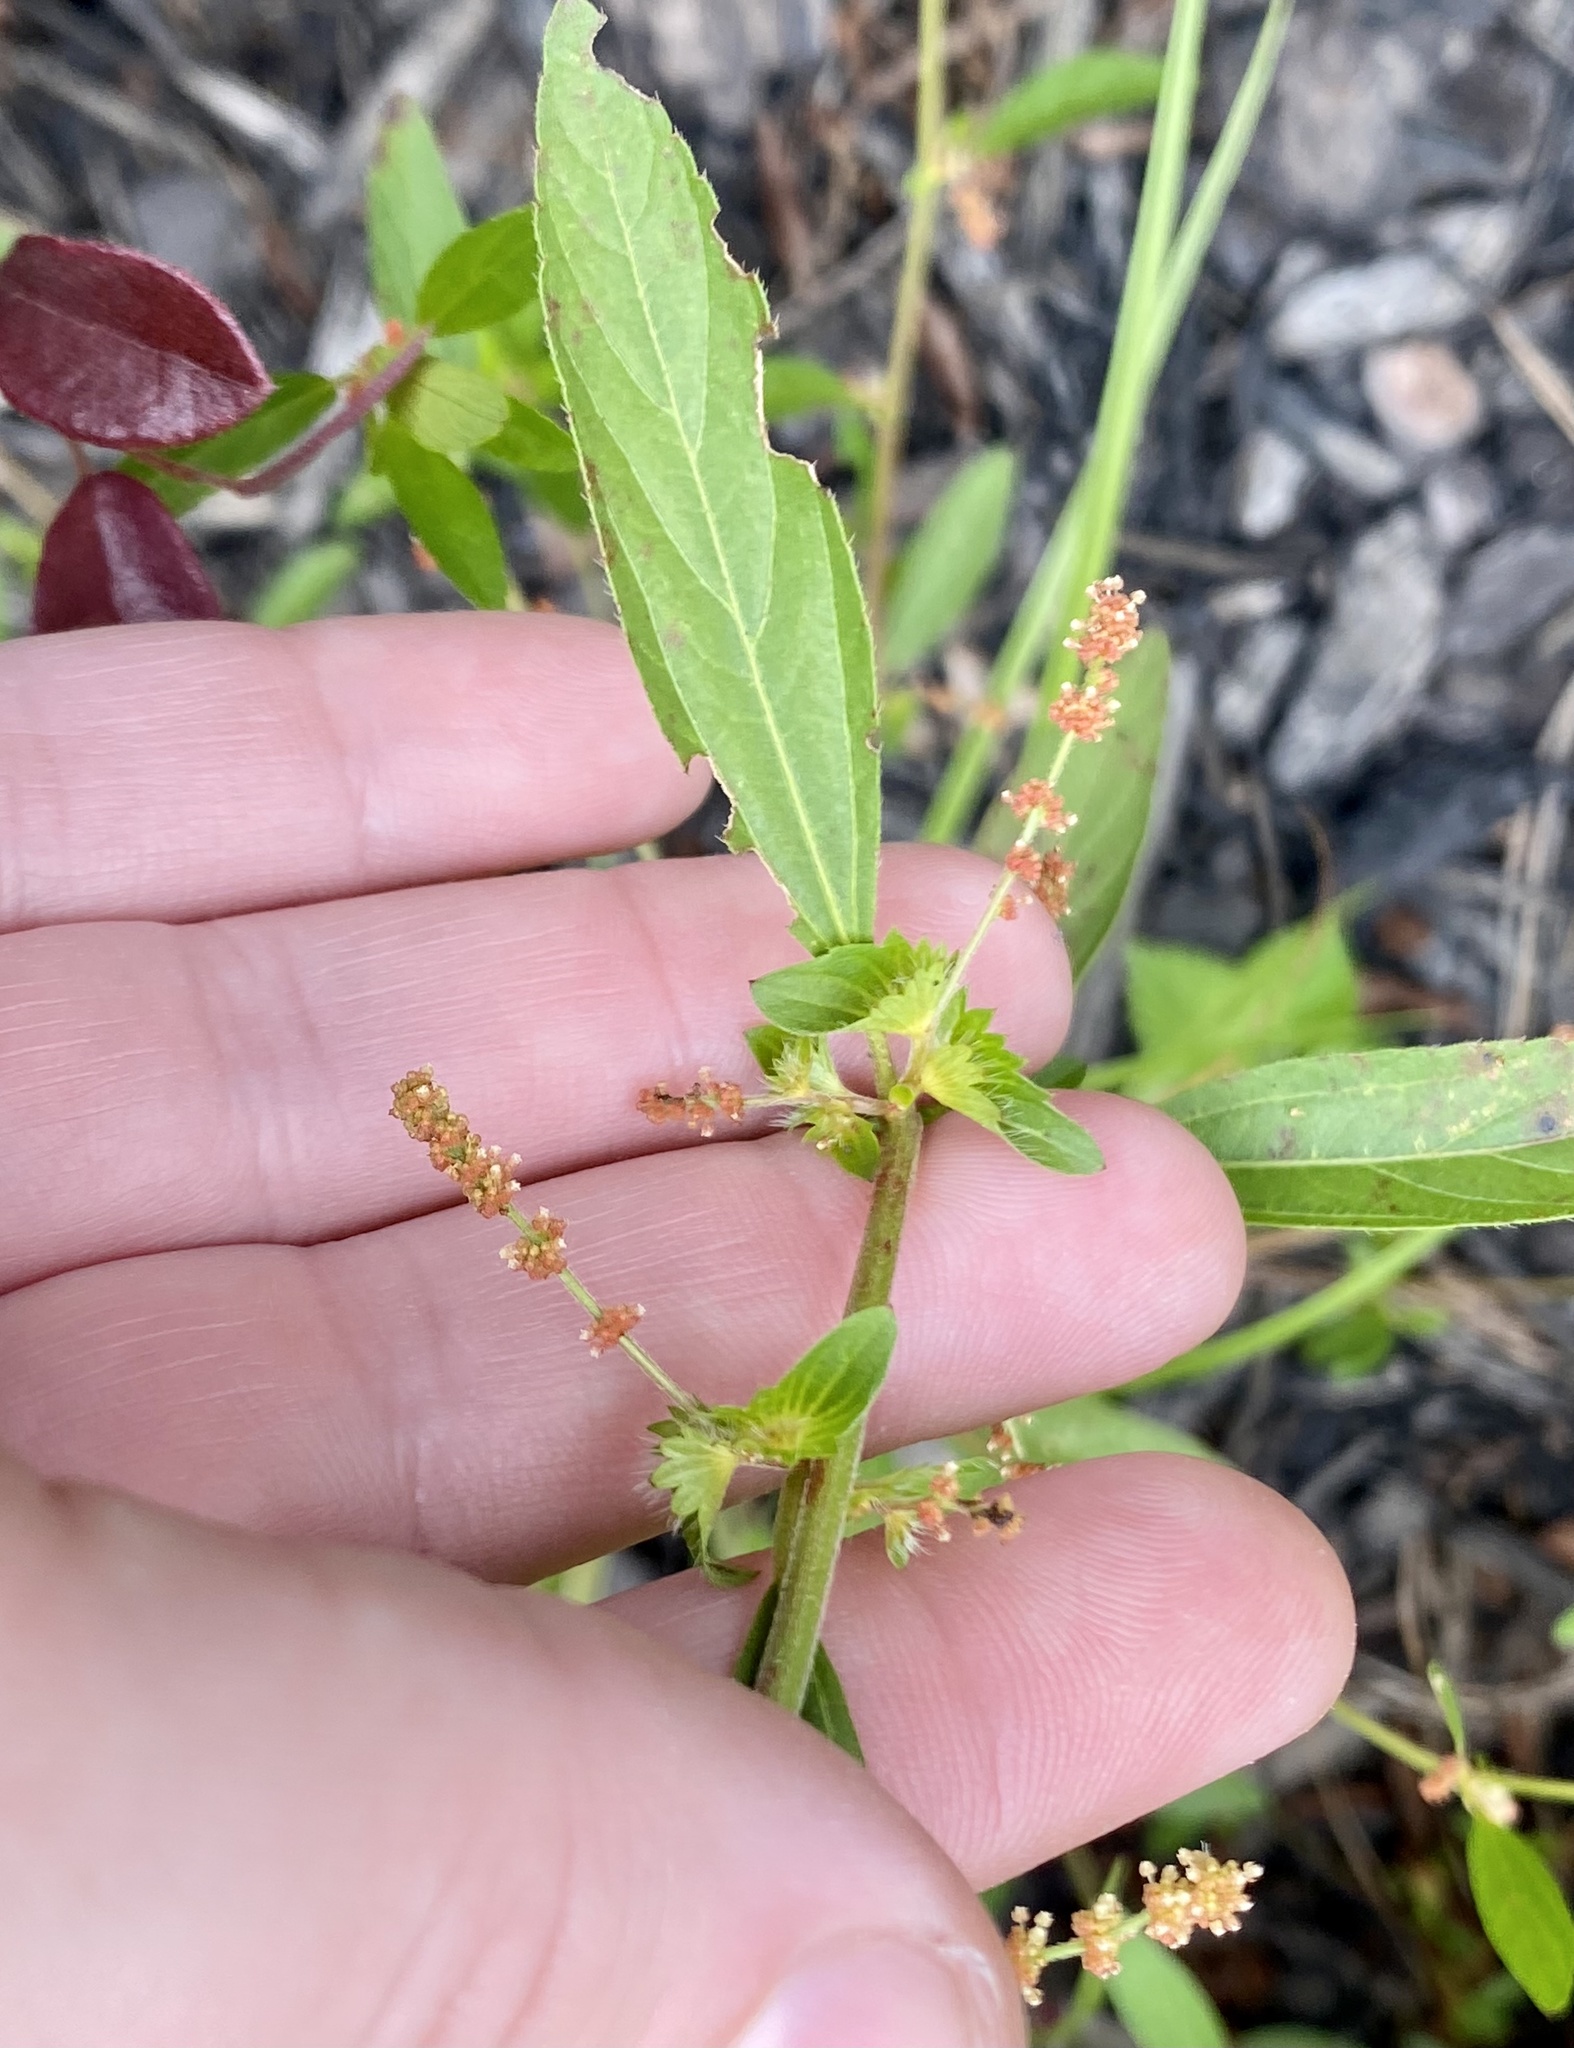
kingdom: Plantae
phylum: Tracheophyta
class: Magnoliopsida
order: Malpighiales
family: Euphorbiaceae
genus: Acalypha
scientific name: Acalypha gracilens
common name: Slender three-seeded mercury
